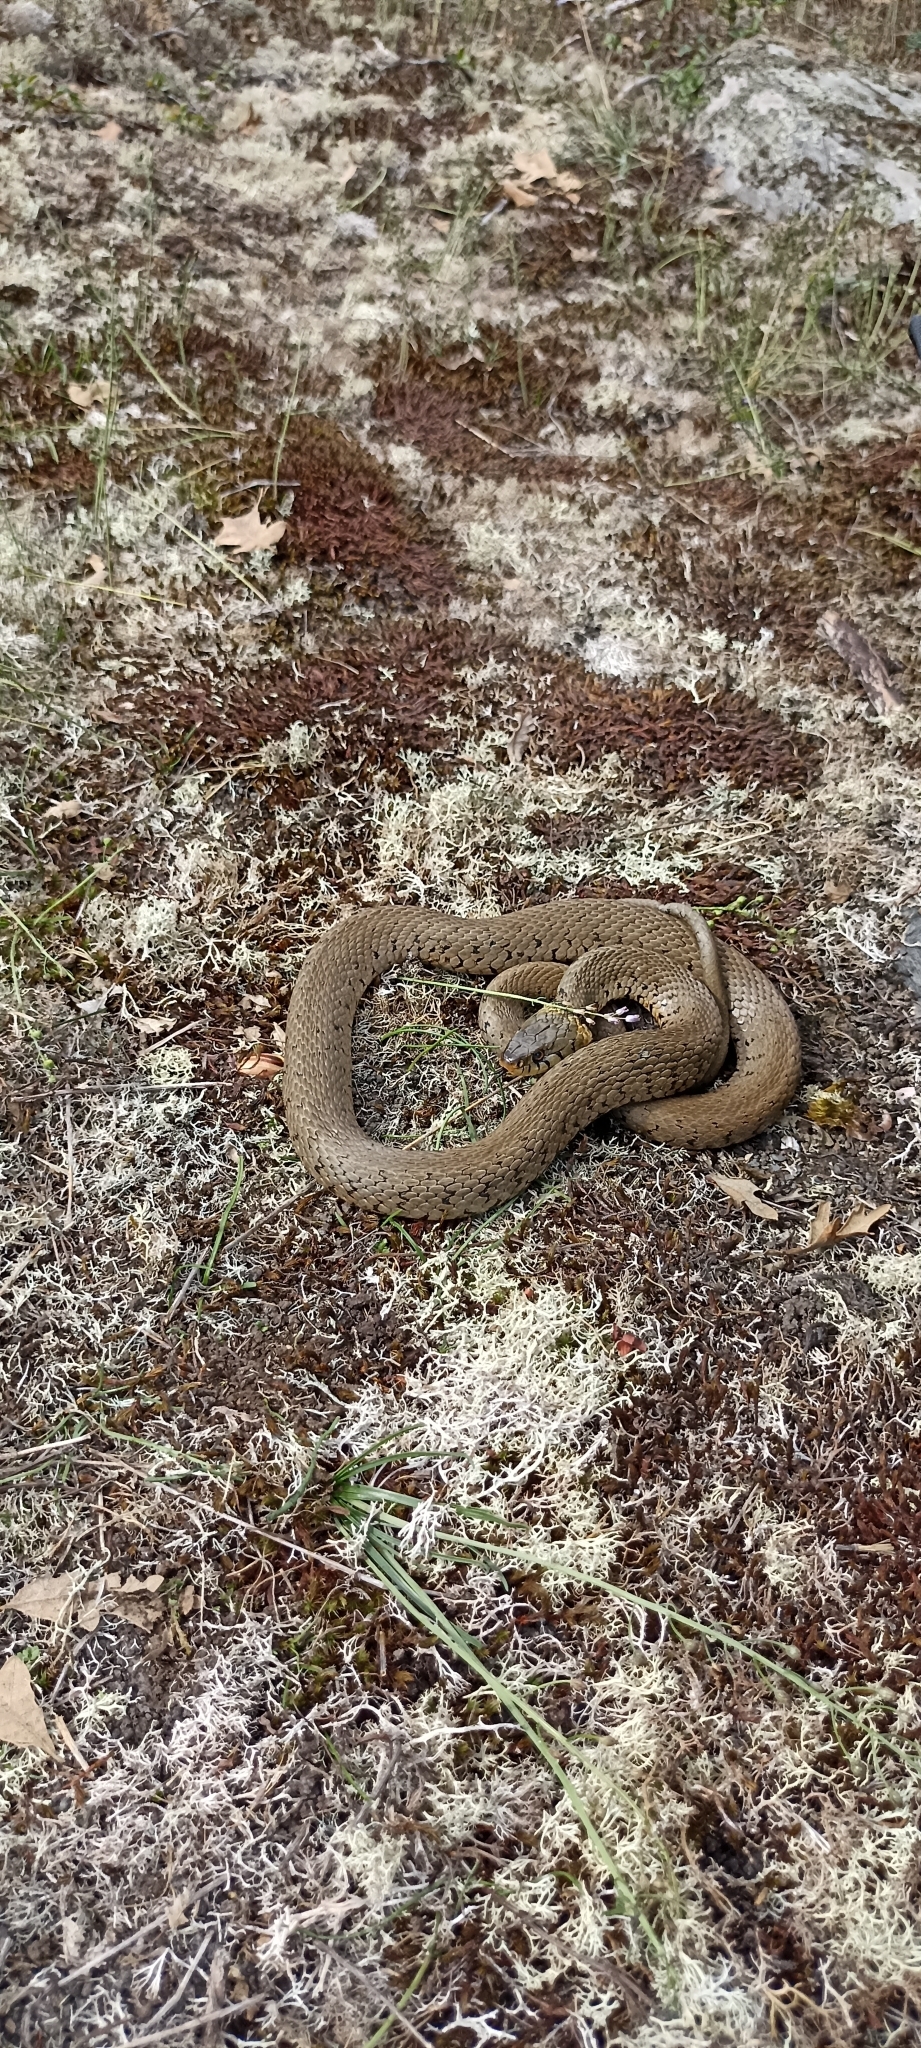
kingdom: Animalia
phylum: Chordata
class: Squamata
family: Colubridae
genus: Natrix
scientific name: Natrix helvetica
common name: Banded grass snake
